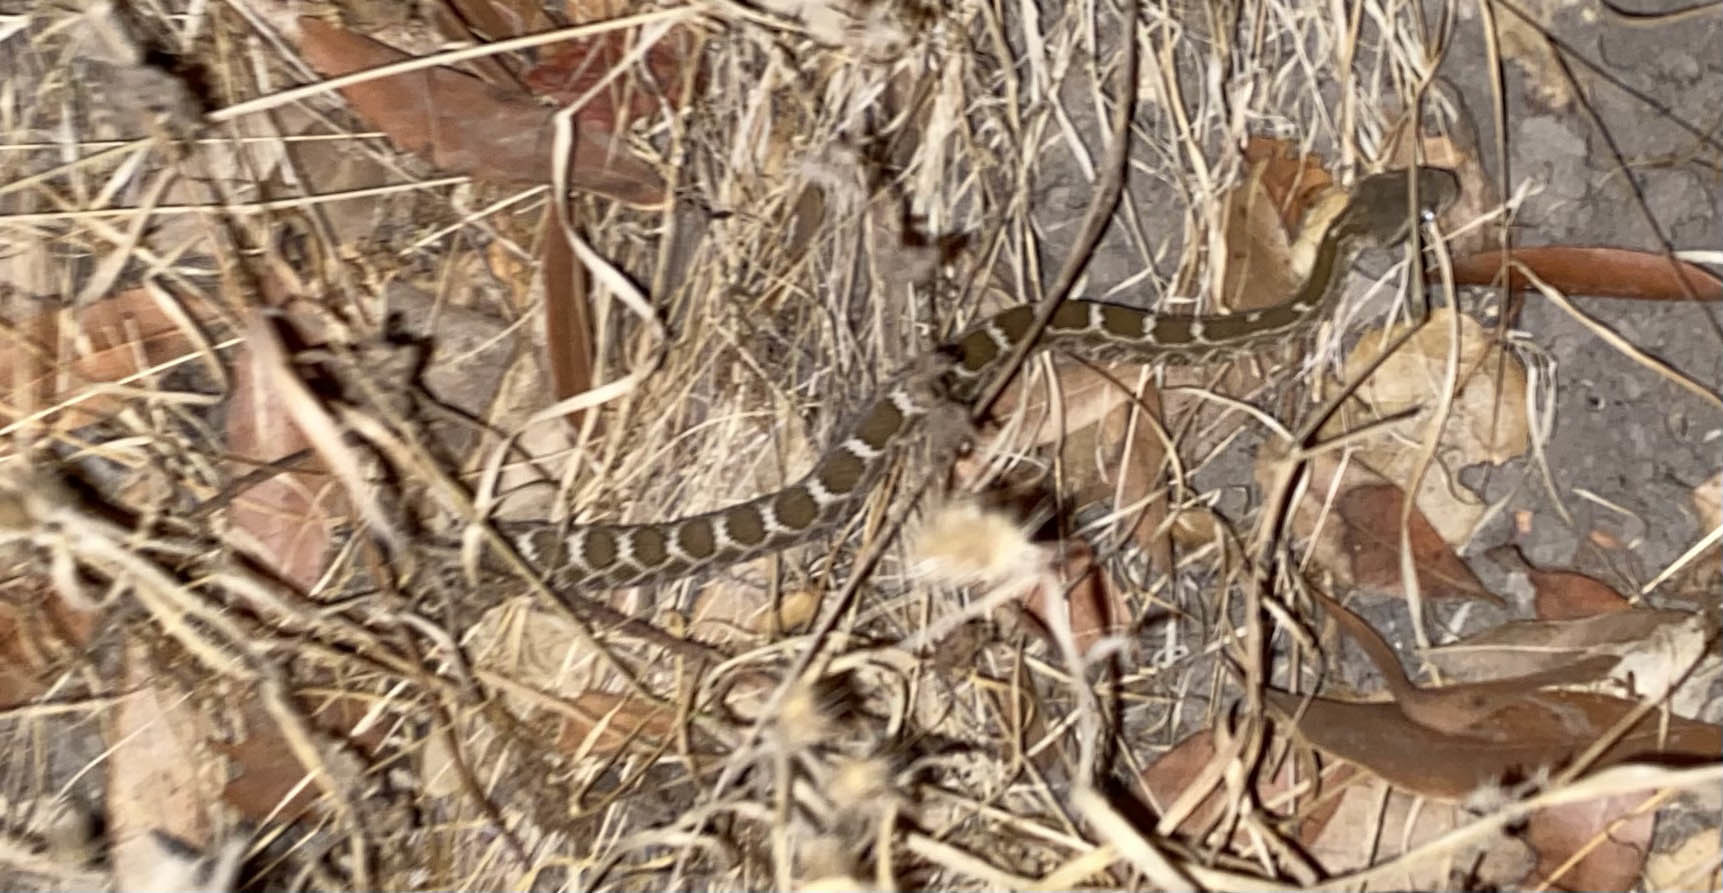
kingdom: Animalia
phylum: Chordata
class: Squamata
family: Viperidae
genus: Crotalus
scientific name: Crotalus oreganus
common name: Abyssus
